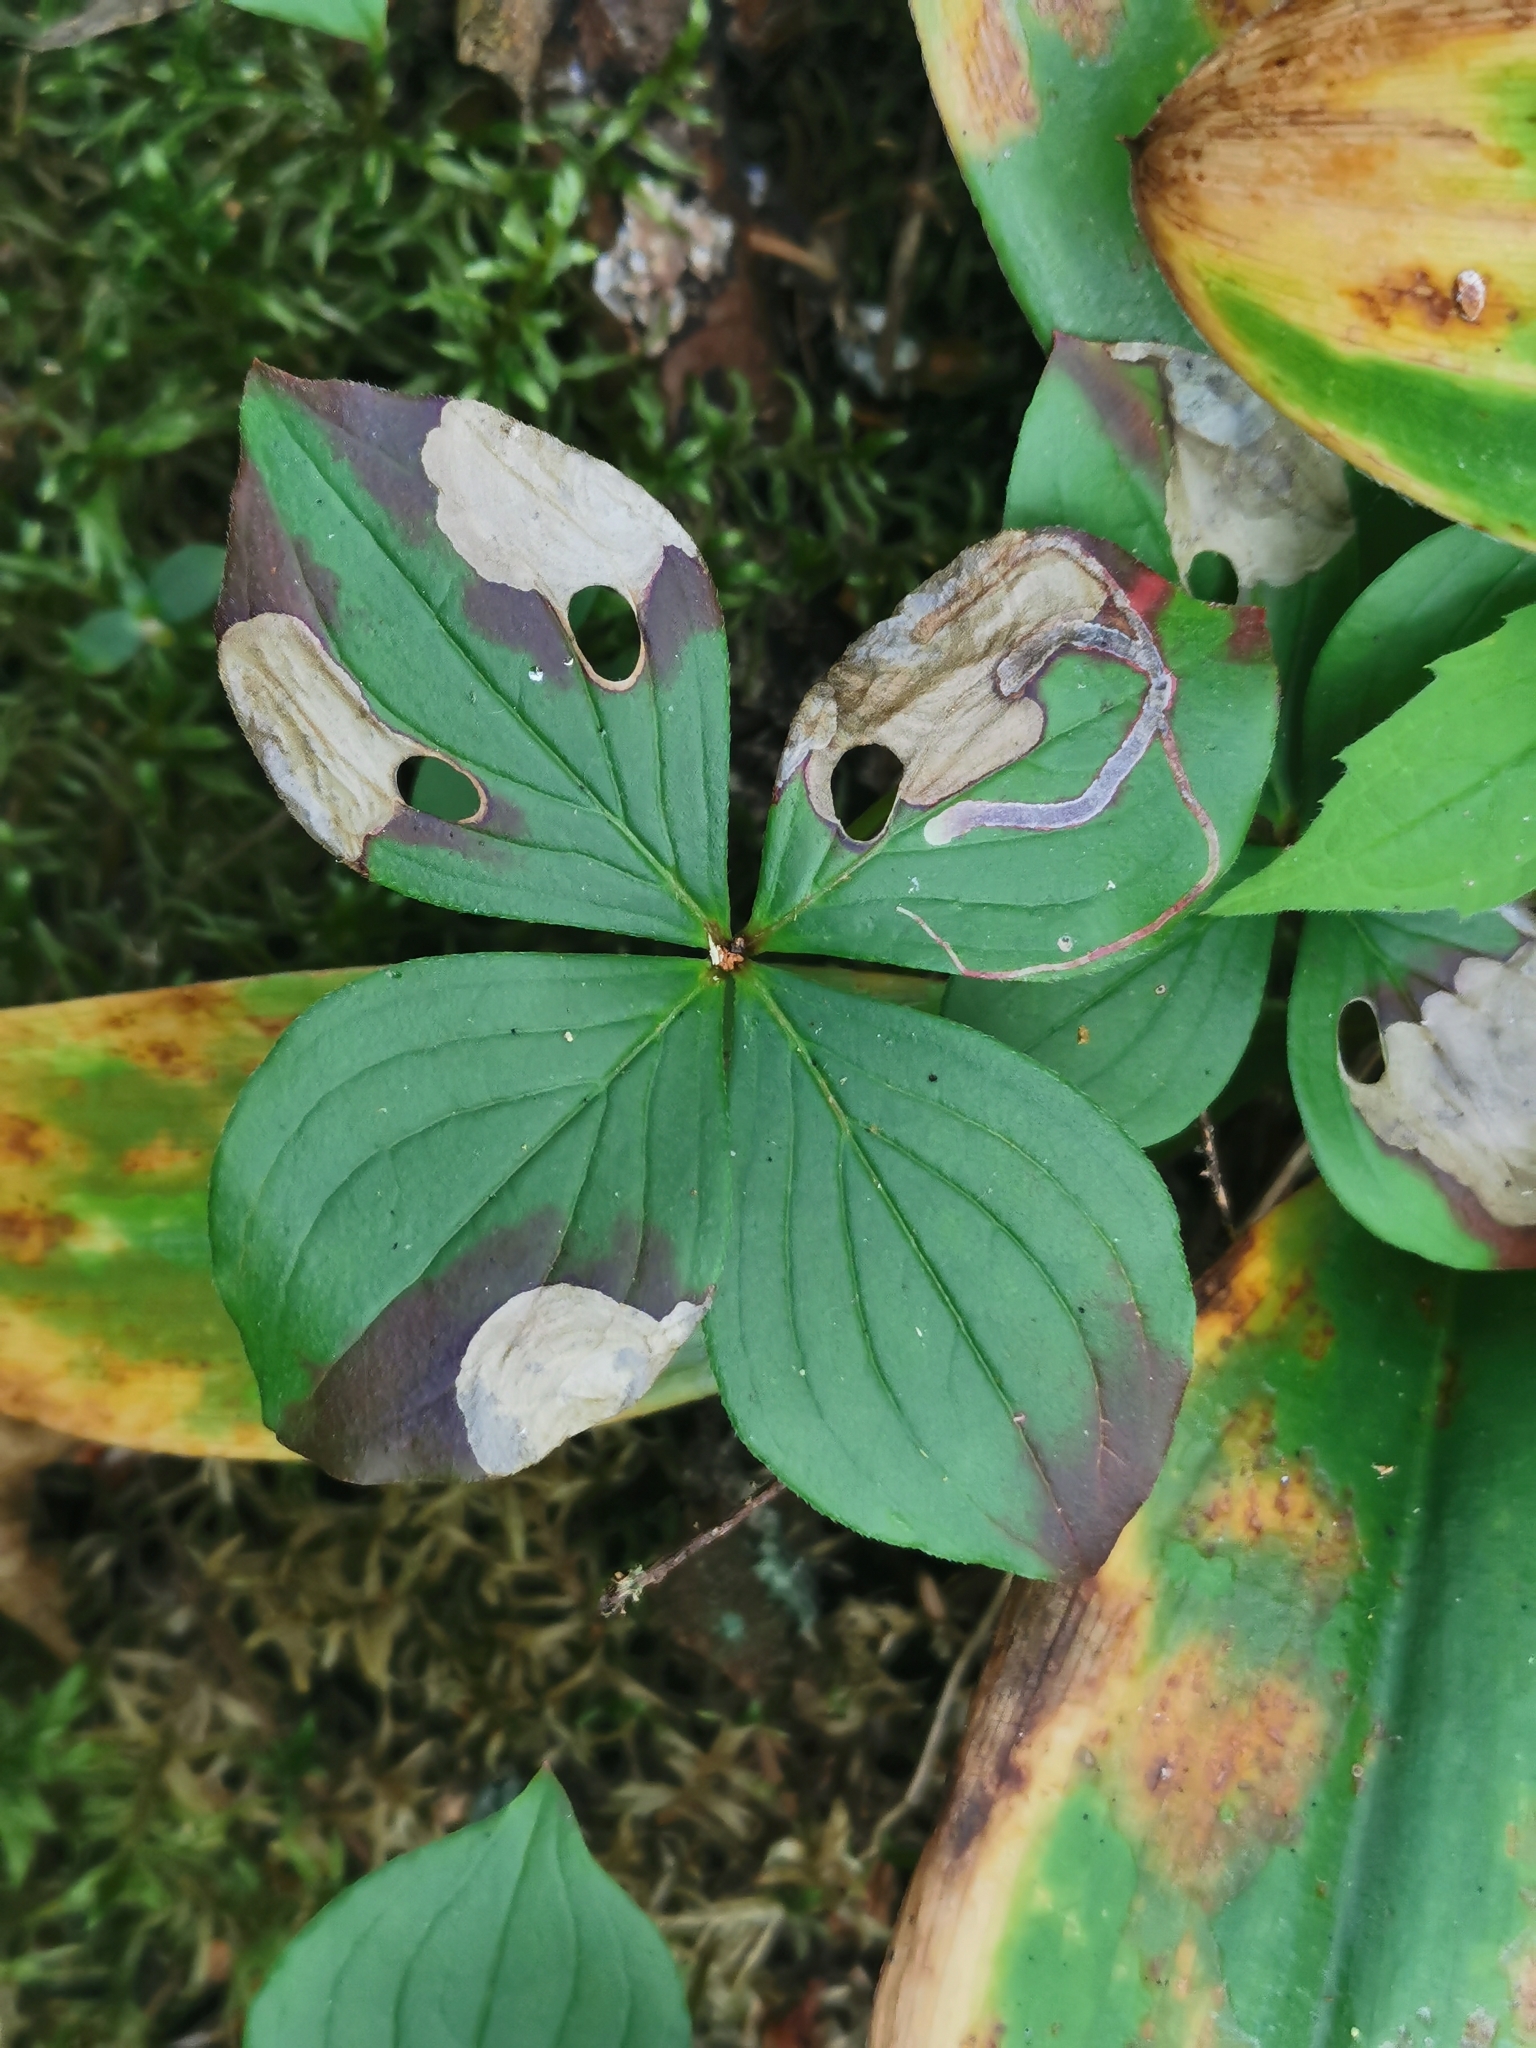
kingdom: Animalia
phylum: Arthropoda
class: Insecta
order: Lepidoptera
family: Heliozelidae
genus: Antispila
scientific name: Antispila freemani
